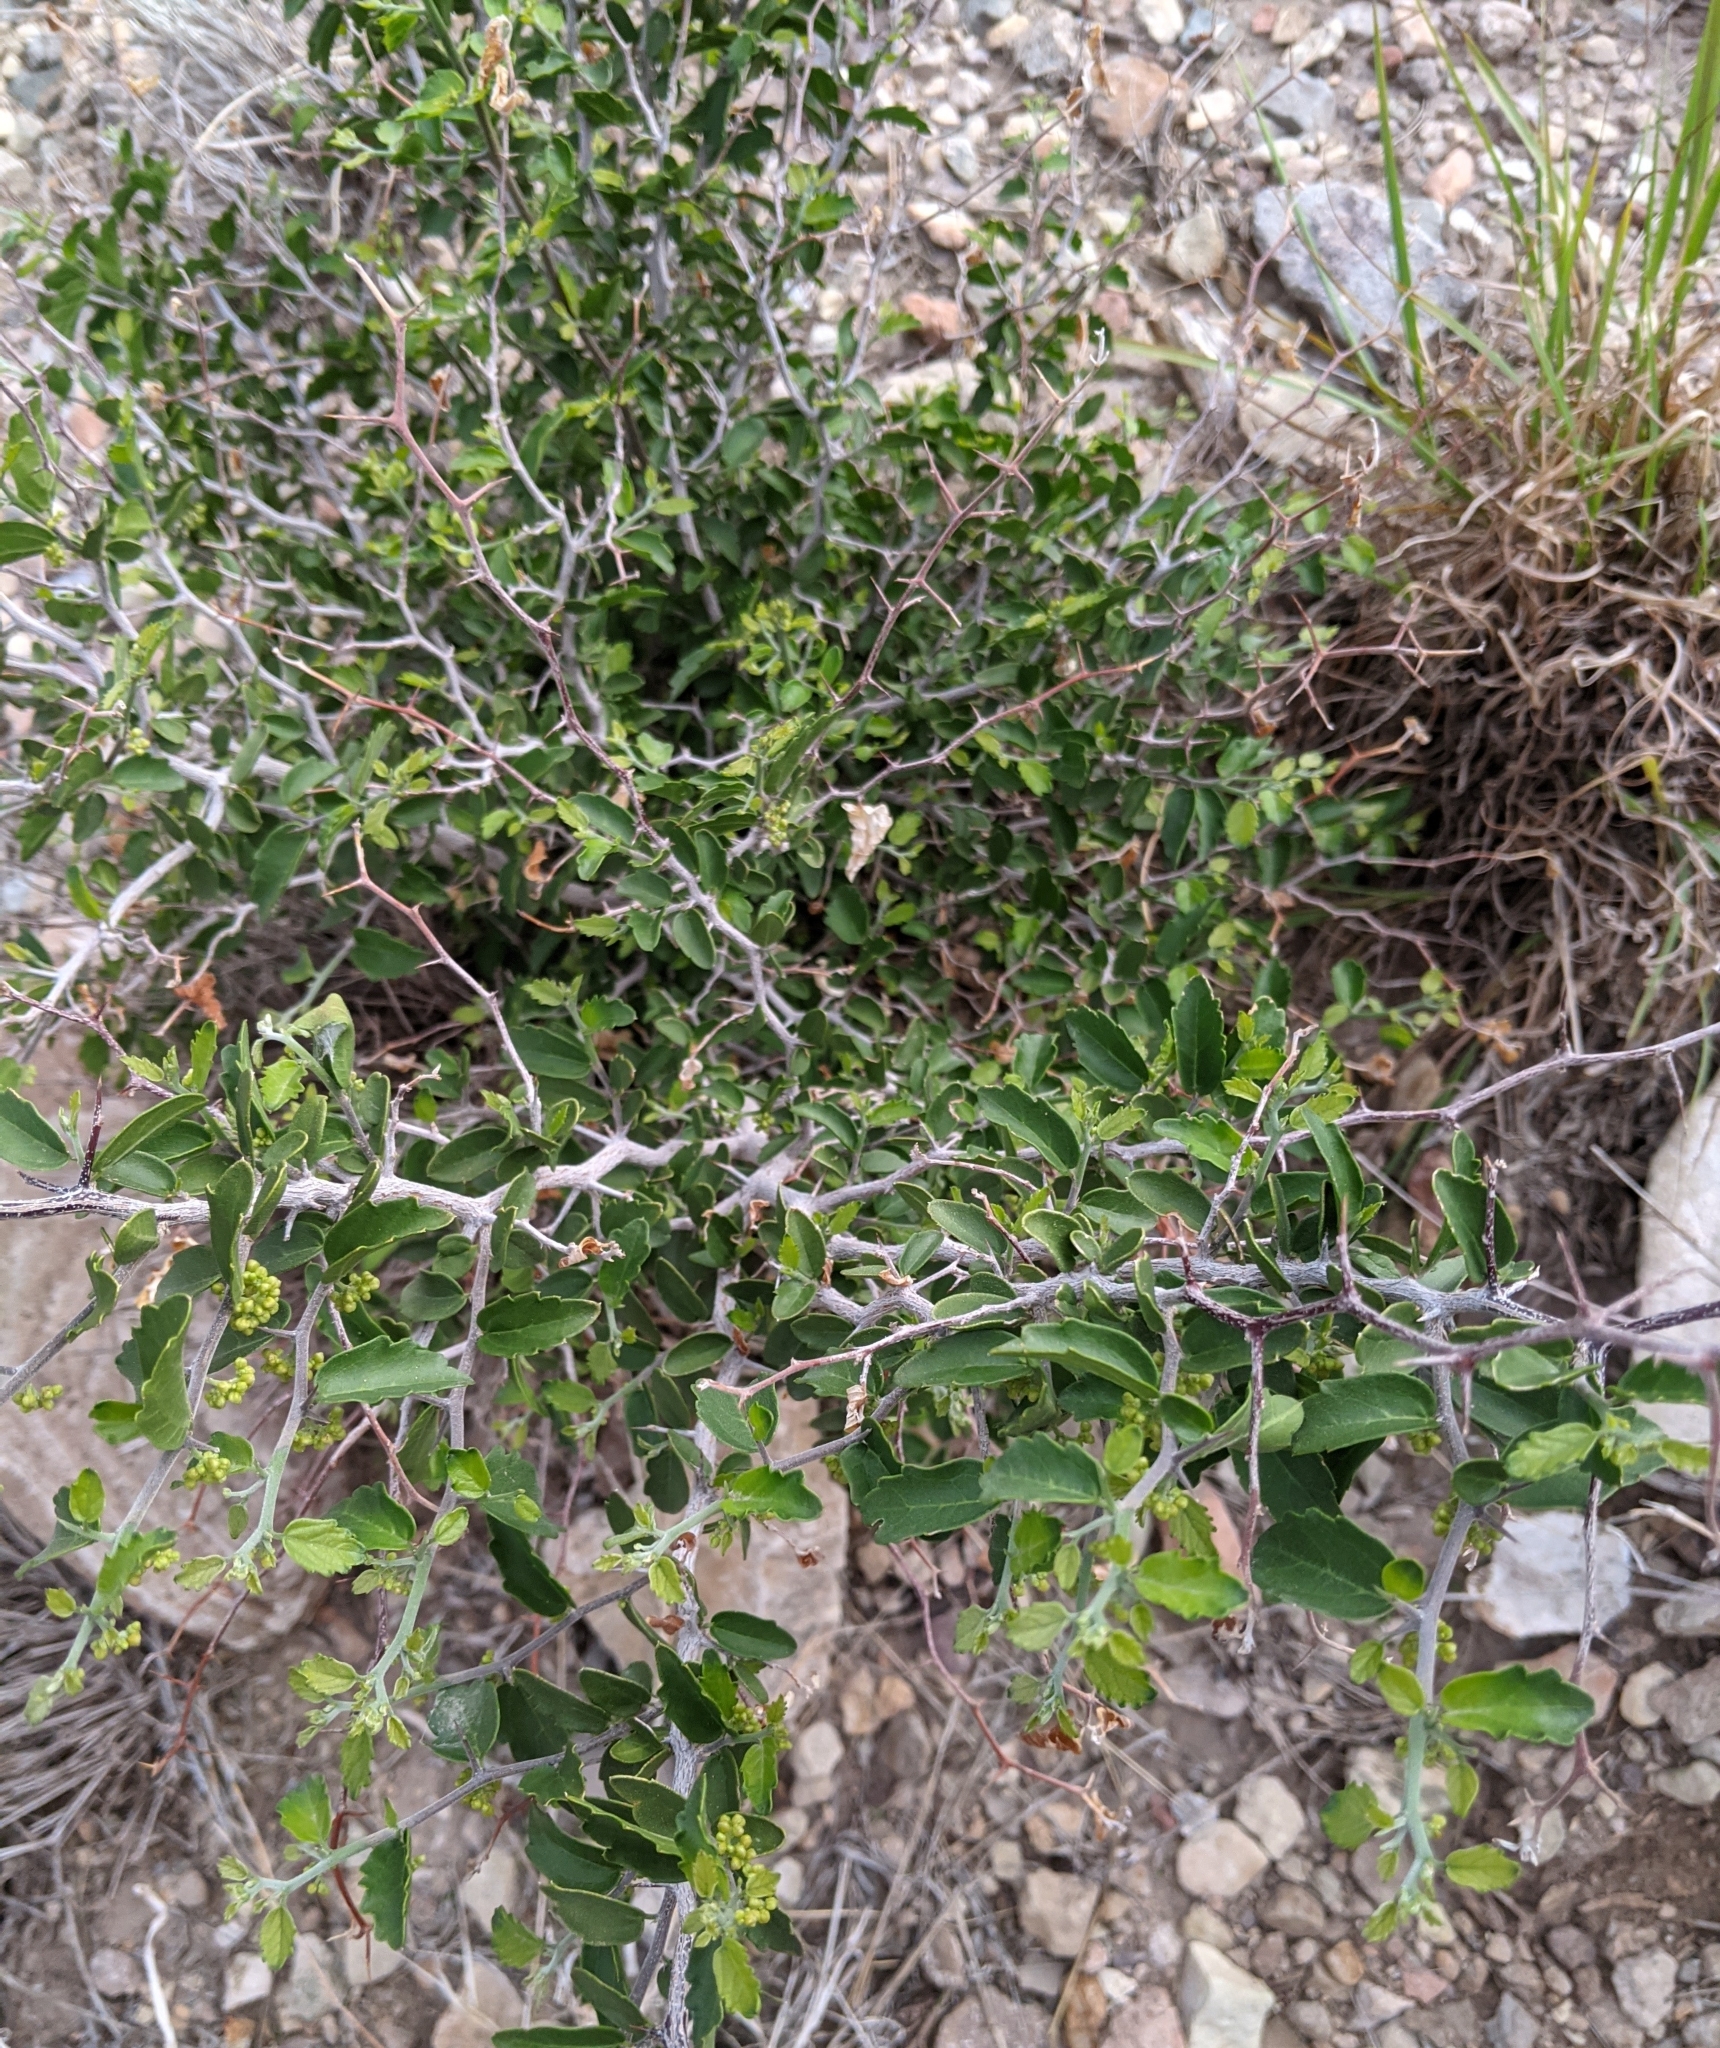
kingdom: Plantae
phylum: Tracheophyta
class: Magnoliopsida
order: Rosales
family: Cannabaceae
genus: Celtis
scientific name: Celtis pallida
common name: Desert hackberry
